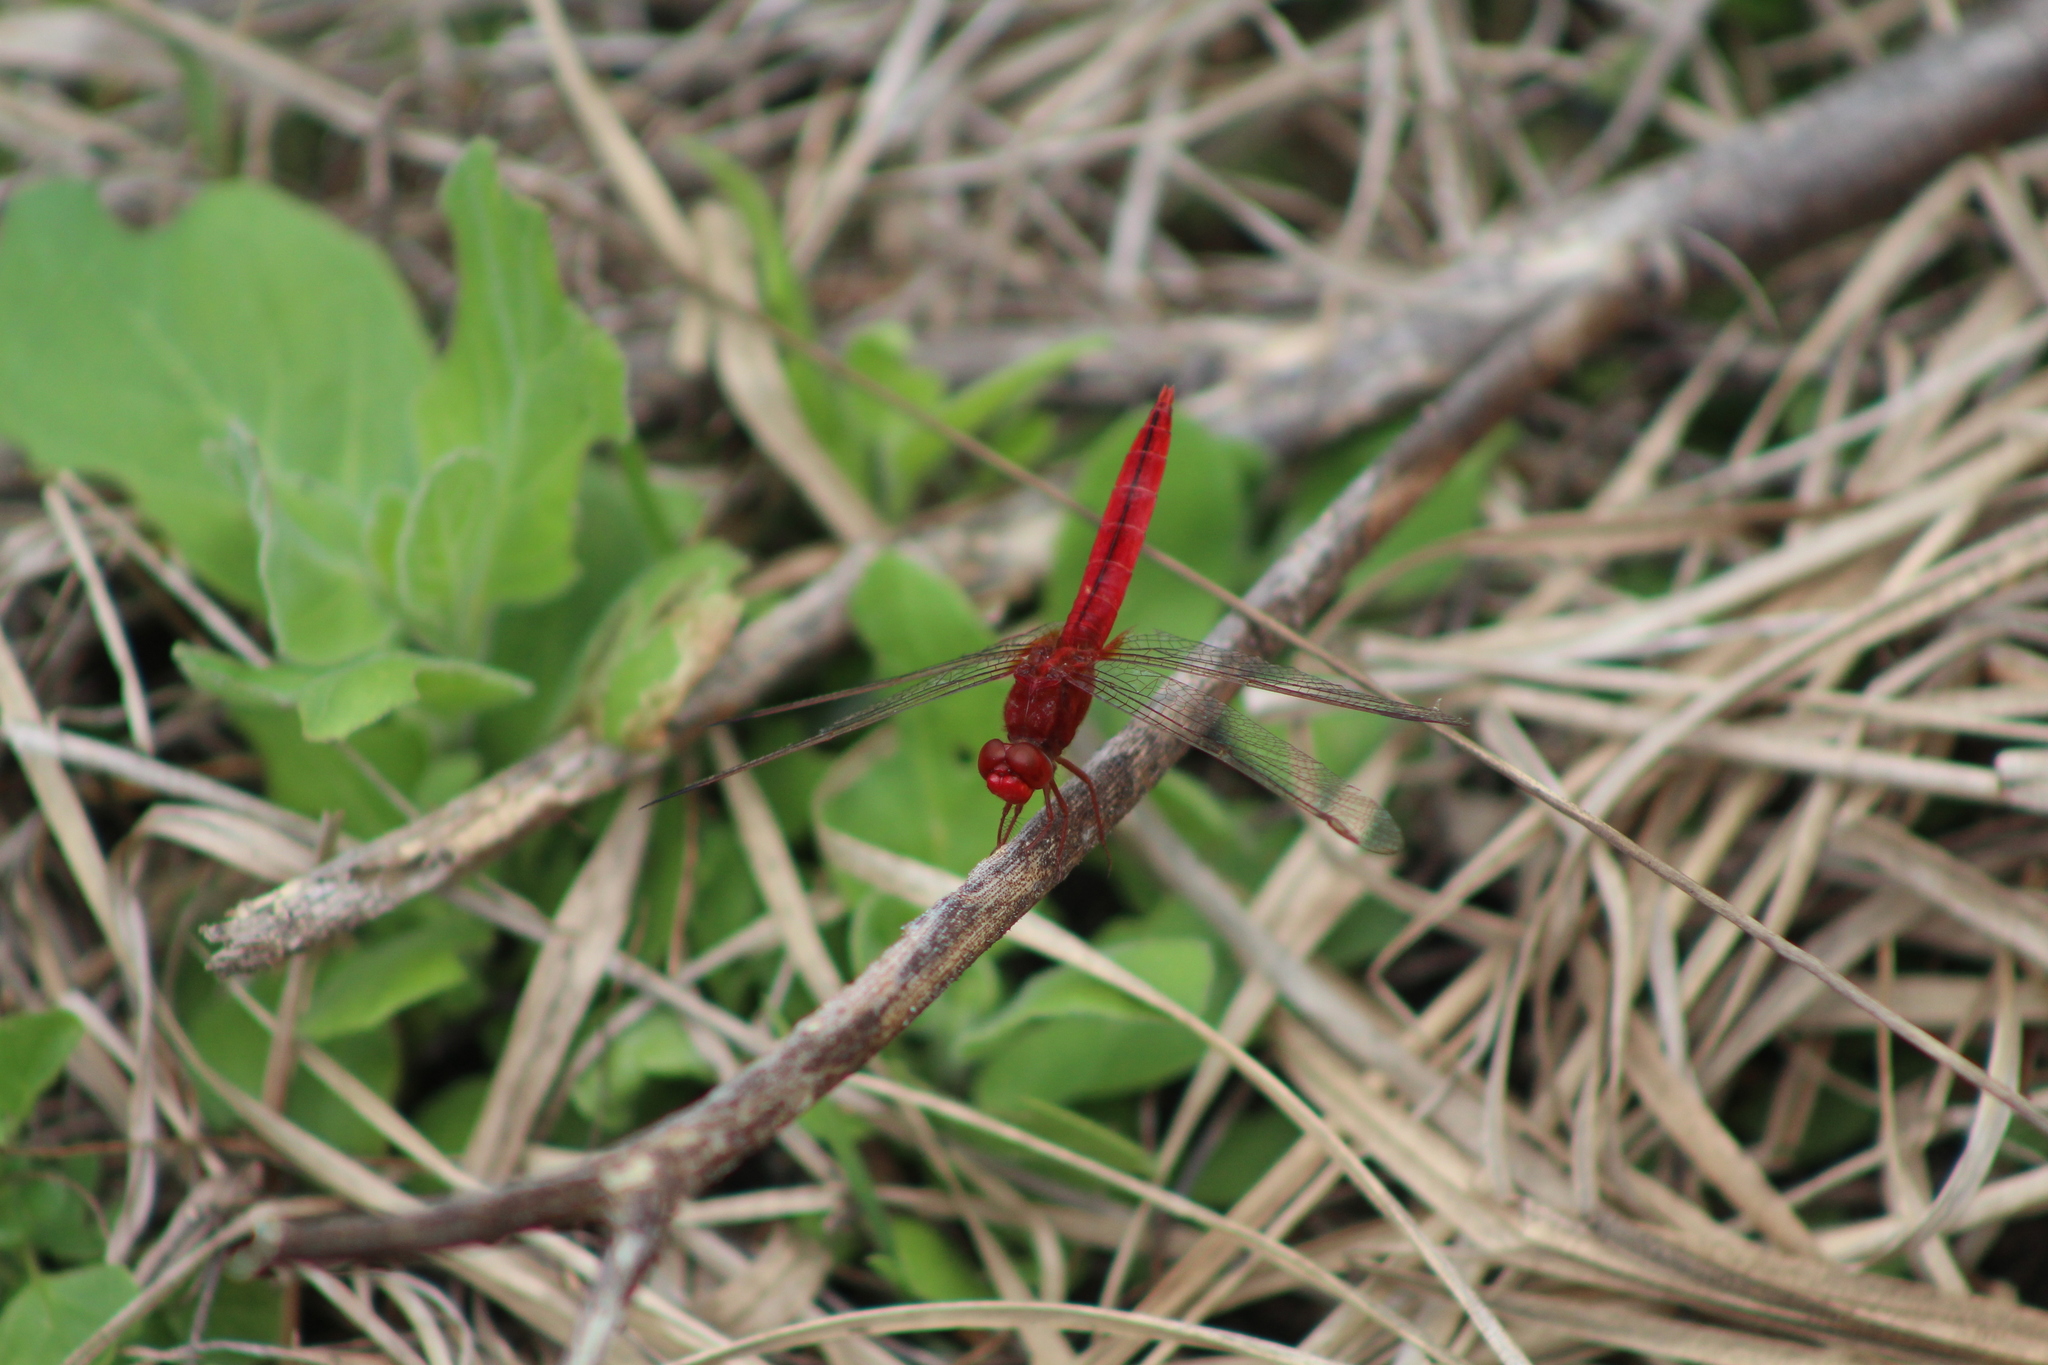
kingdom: Animalia
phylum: Arthropoda
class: Insecta
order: Odonata
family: Libellulidae
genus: Crocothemis
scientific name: Crocothemis servilia
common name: Scarlet skimmer
